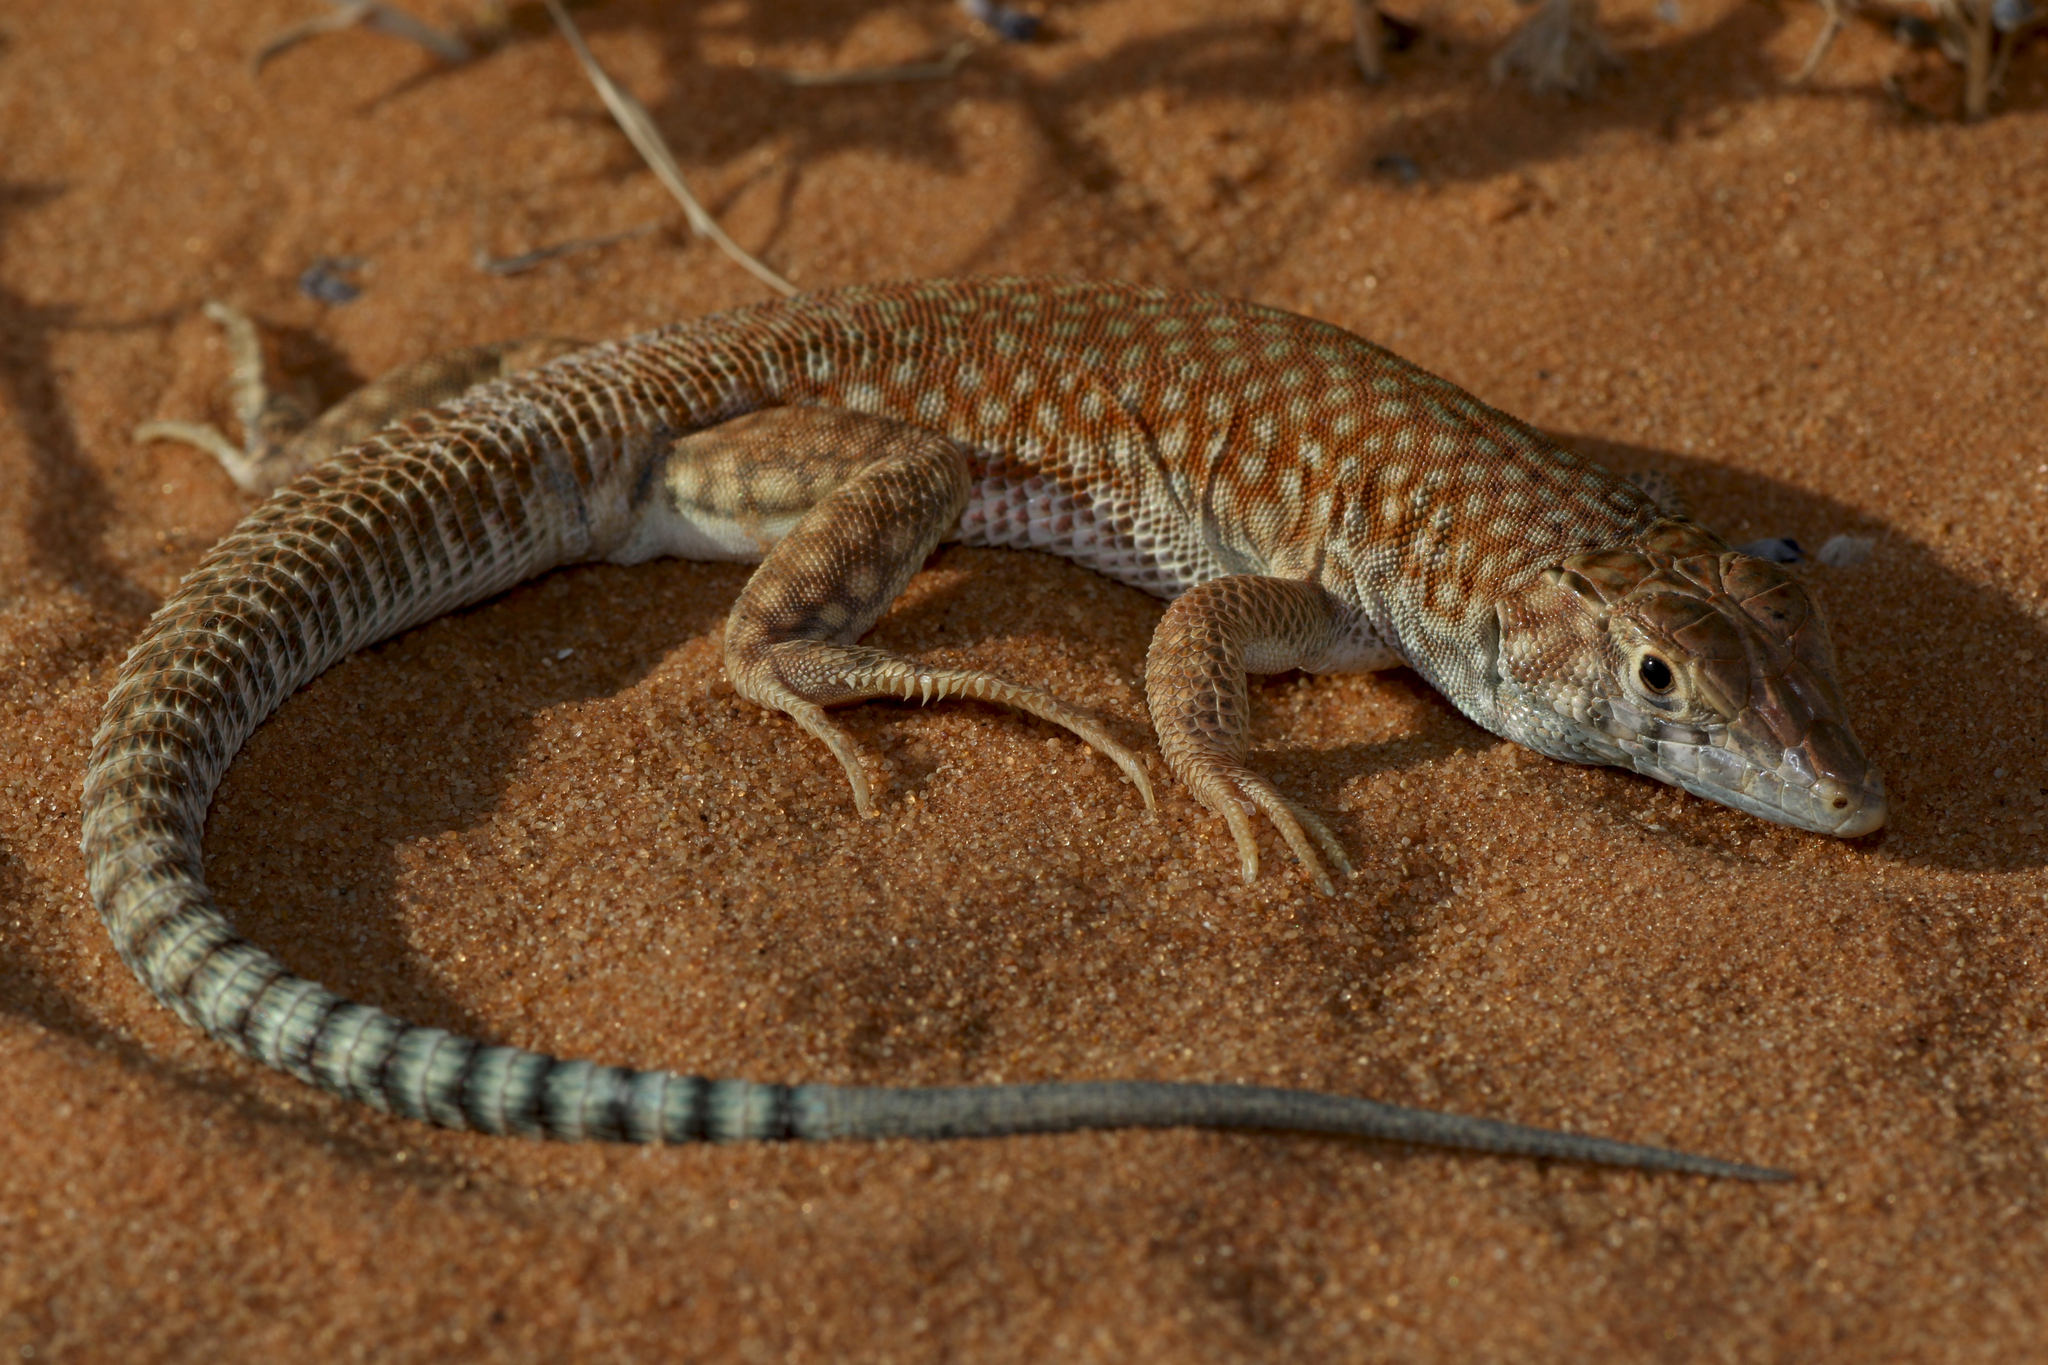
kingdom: Animalia
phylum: Chordata
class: Squamata
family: Lacertidae
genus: Acanthodactylus
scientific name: Acanthodactylus schmidti
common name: Schmidt's fringe-toed lizard
